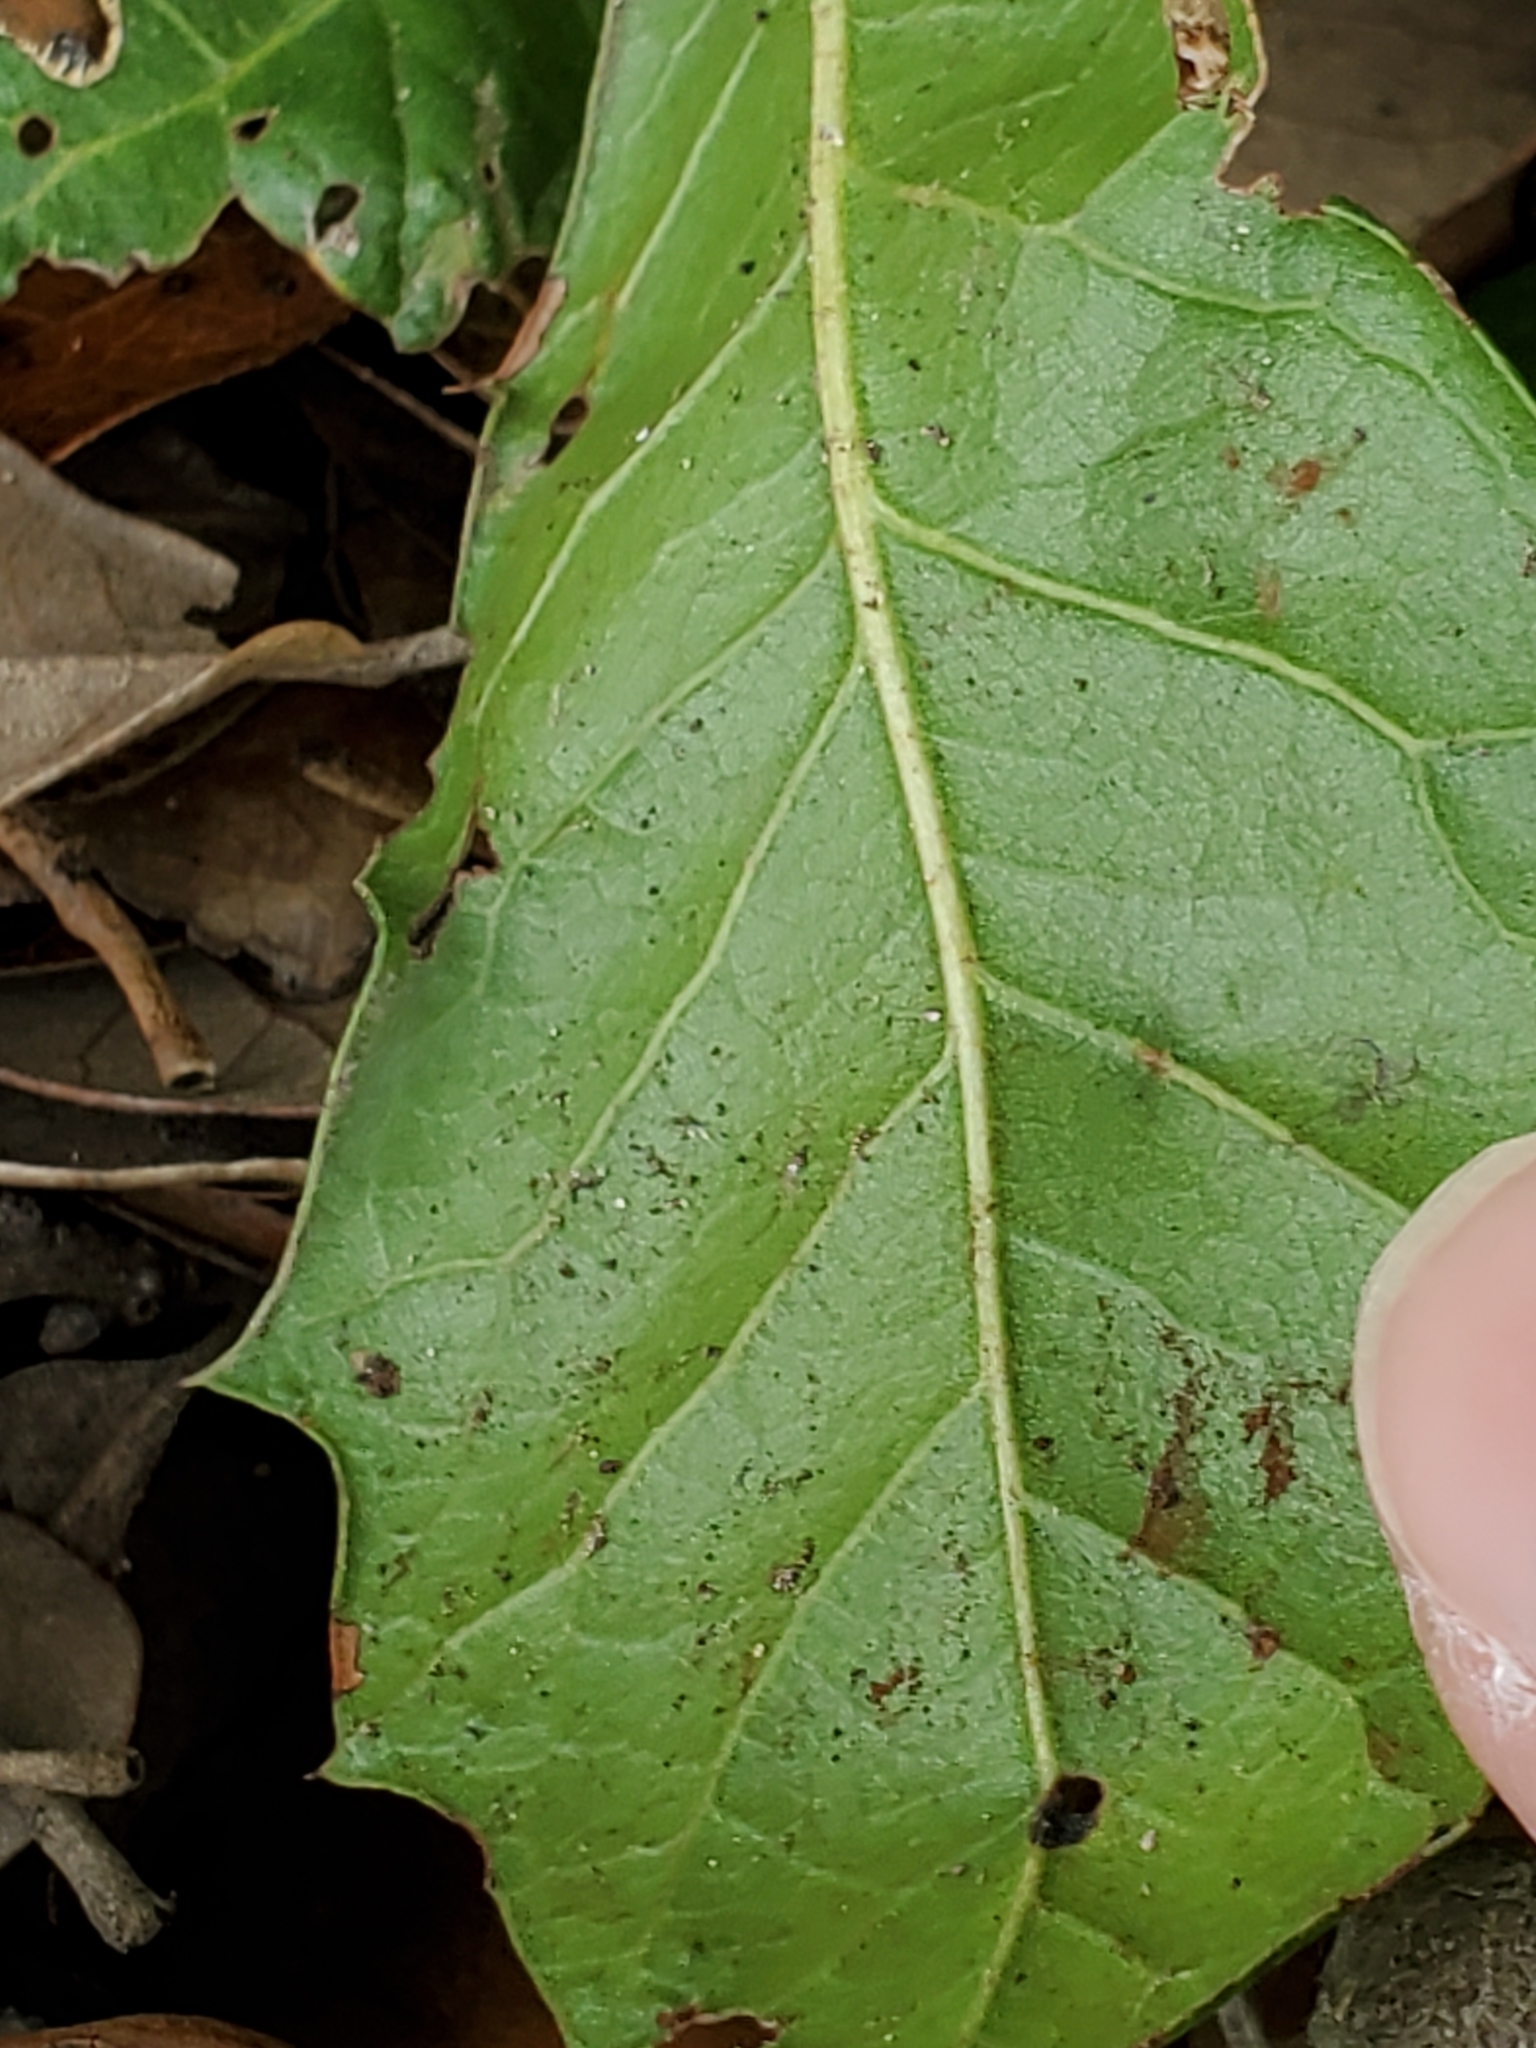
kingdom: Plantae
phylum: Tracheophyta
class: Magnoliopsida
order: Fagales
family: Fagaceae
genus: Quercus
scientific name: Quercus fusiformis
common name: Texas live oak
